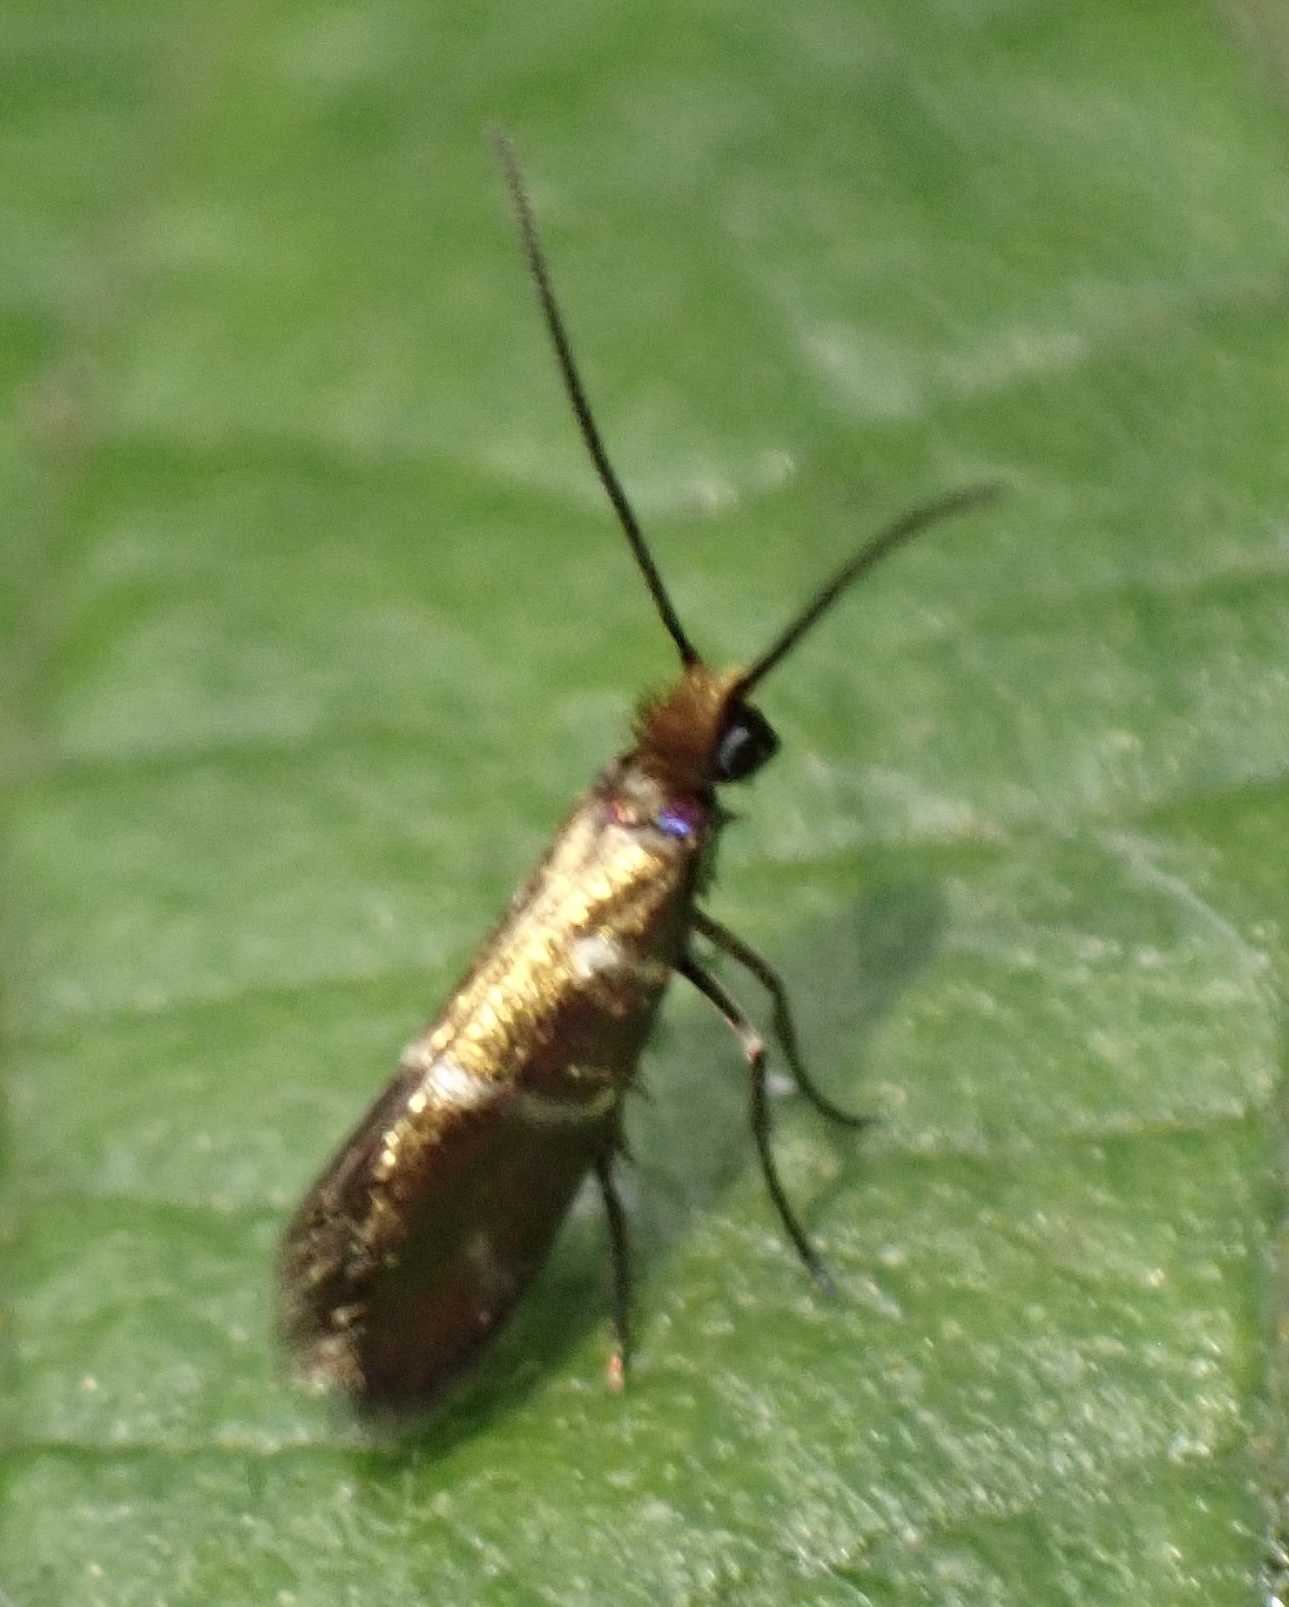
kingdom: Animalia
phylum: Arthropoda
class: Insecta
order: Lepidoptera
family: Micropterigidae
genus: Micropterix
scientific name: Micropterix aruncella
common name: White-barred gold
